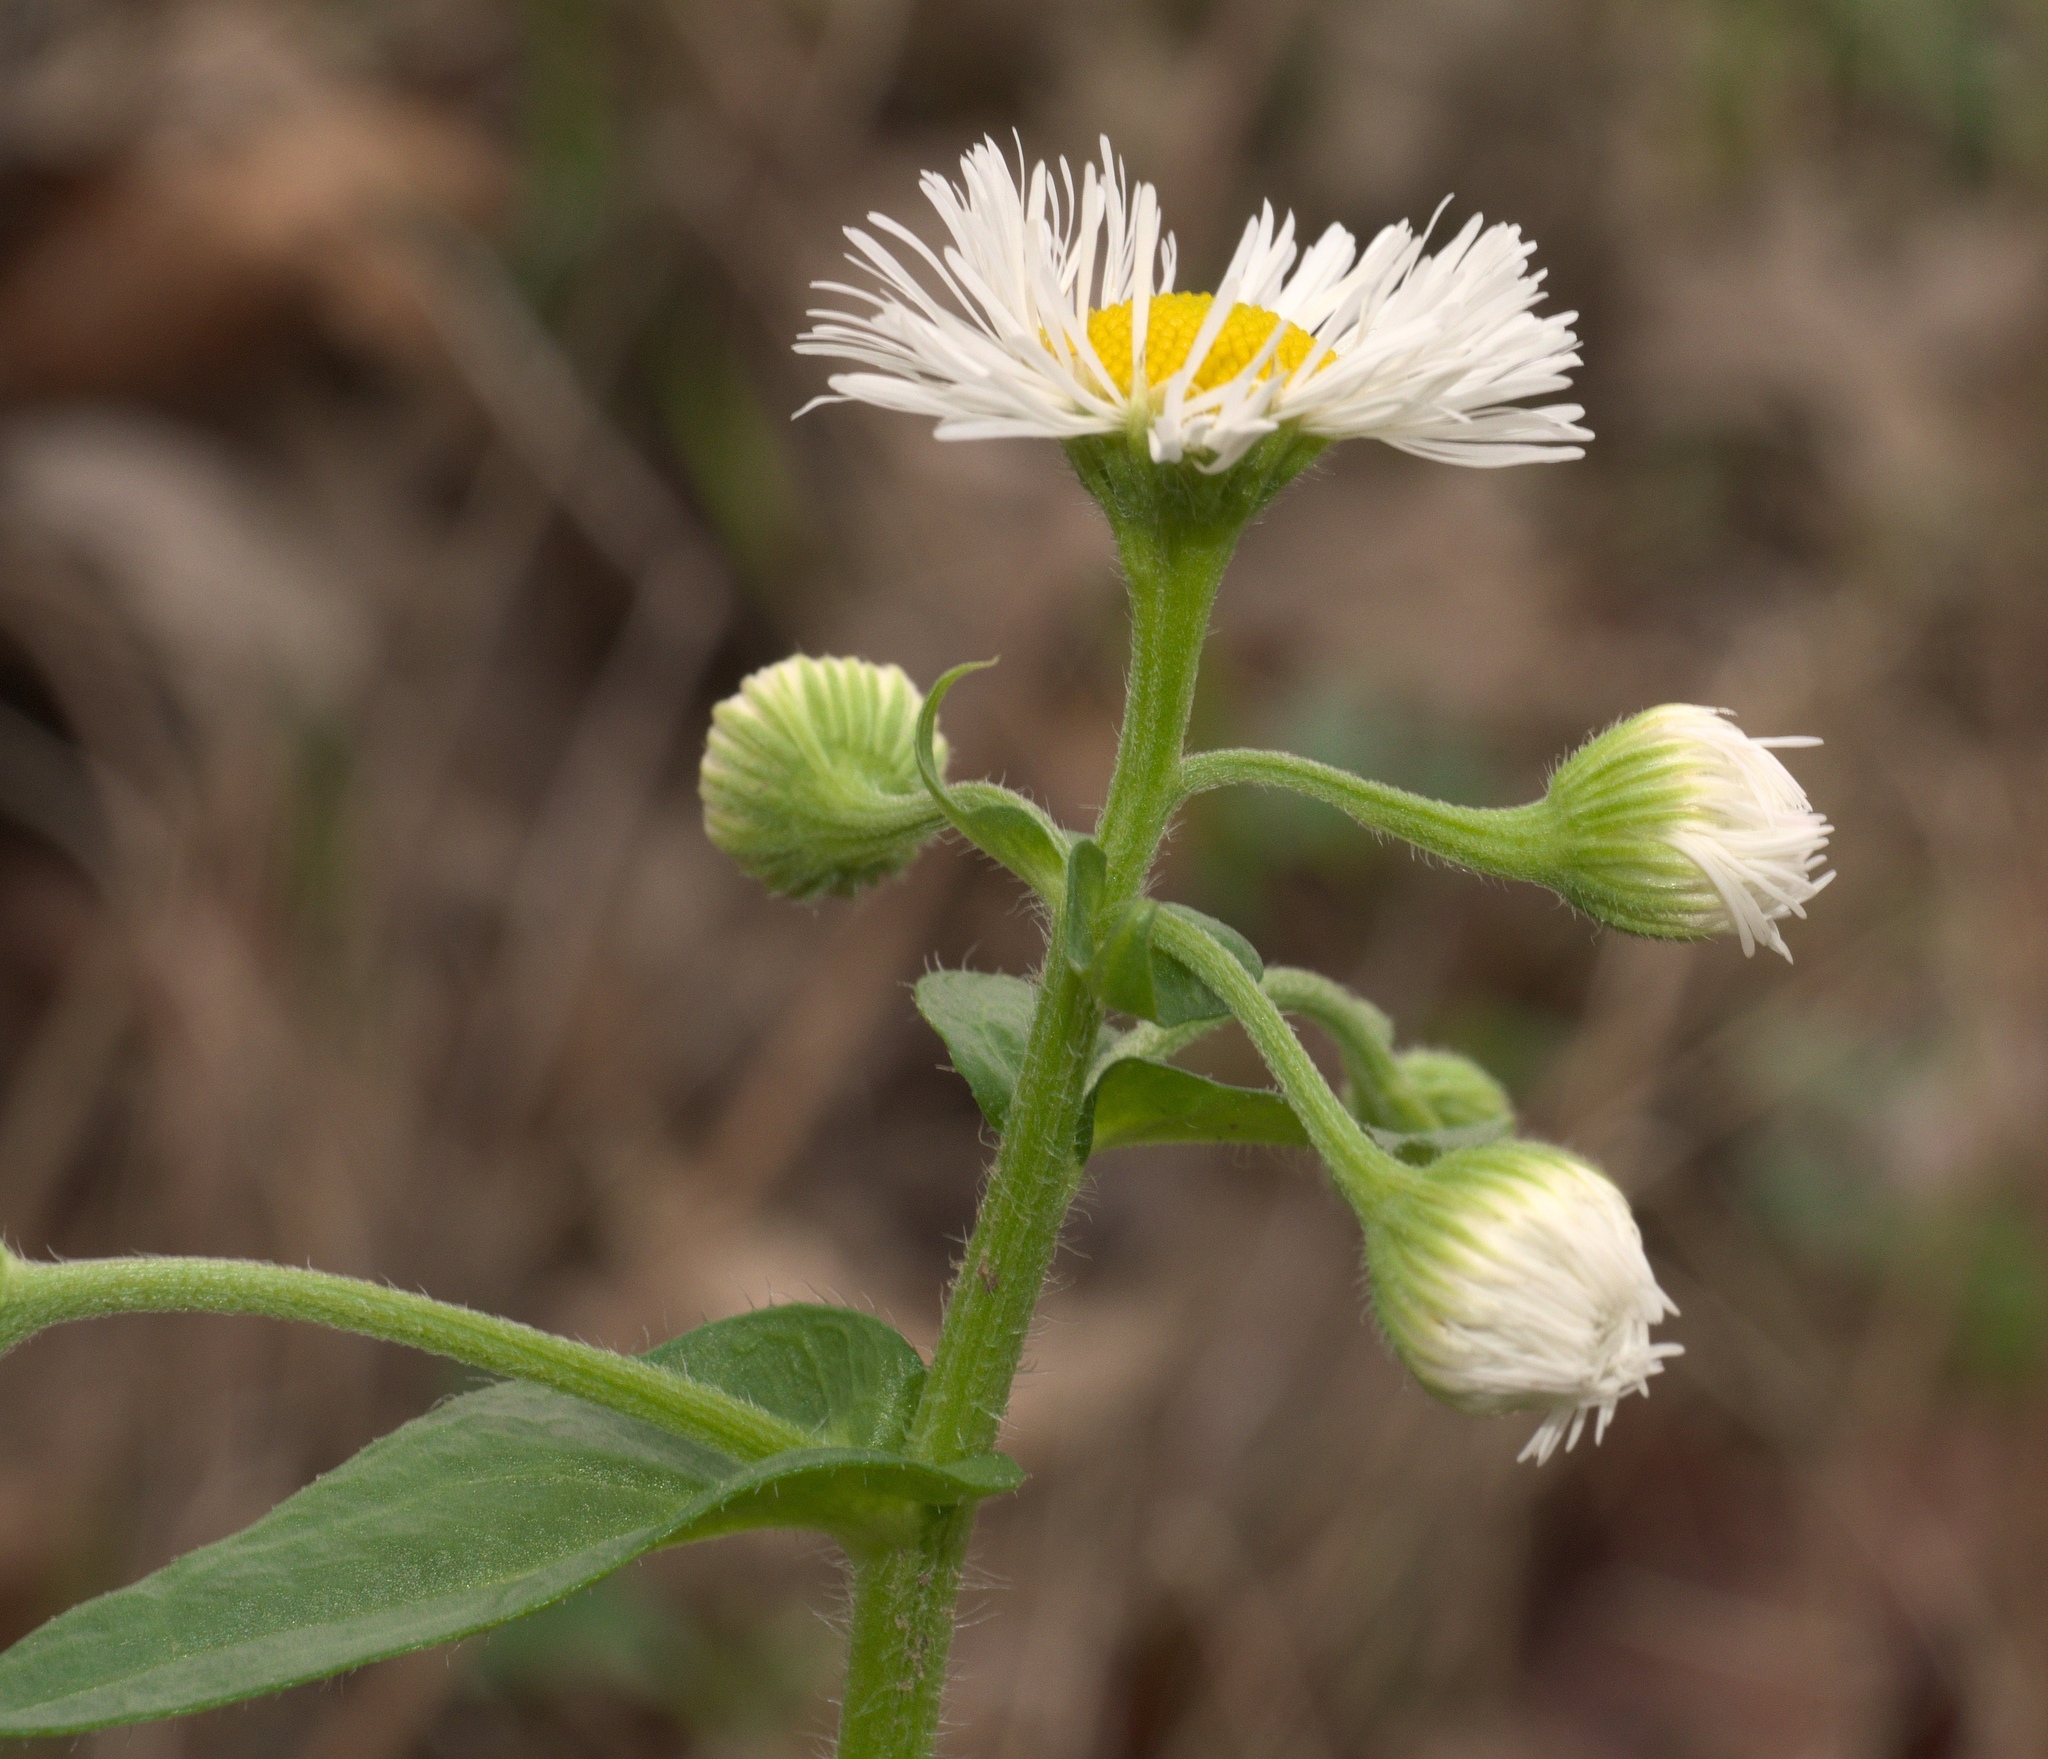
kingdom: Plantae
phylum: Tracheophyta
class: Magnoliopsida
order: Asterales
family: Asteraceae
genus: Erigeron
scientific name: Erigeron philadelphicus
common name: Robin's-plantain
